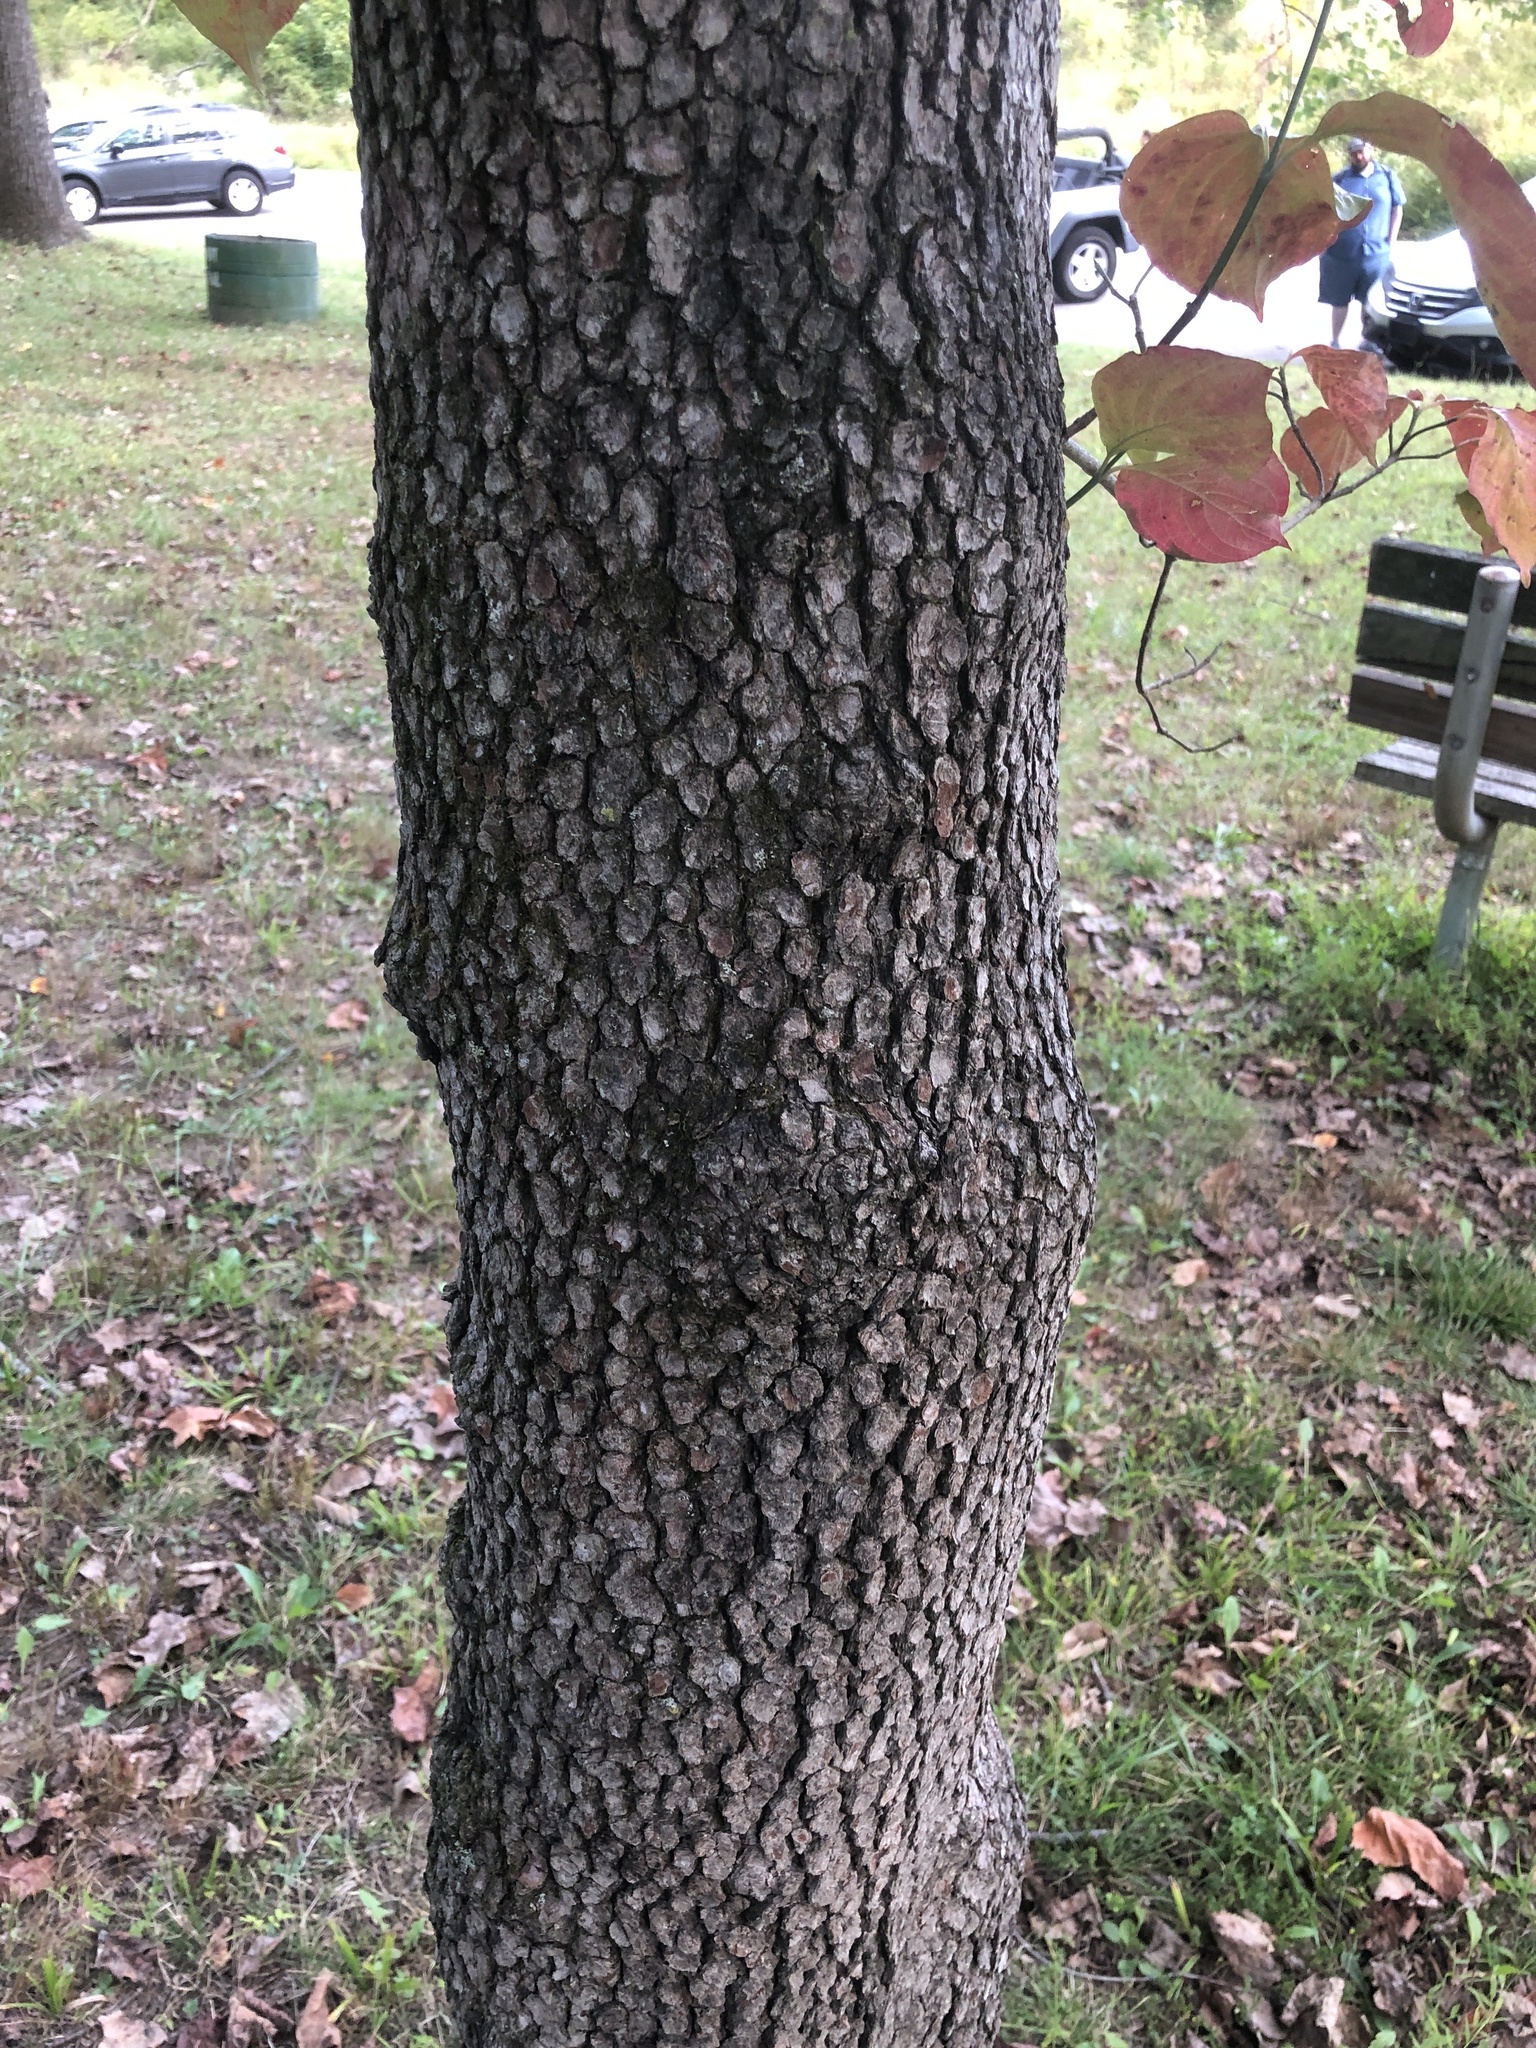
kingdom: Plantae
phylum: Tracheophyta
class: Magnoliopsida
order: Cornales
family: Cornaceae
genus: Cornus
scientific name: Cornus florida
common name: Flowering dogwood
